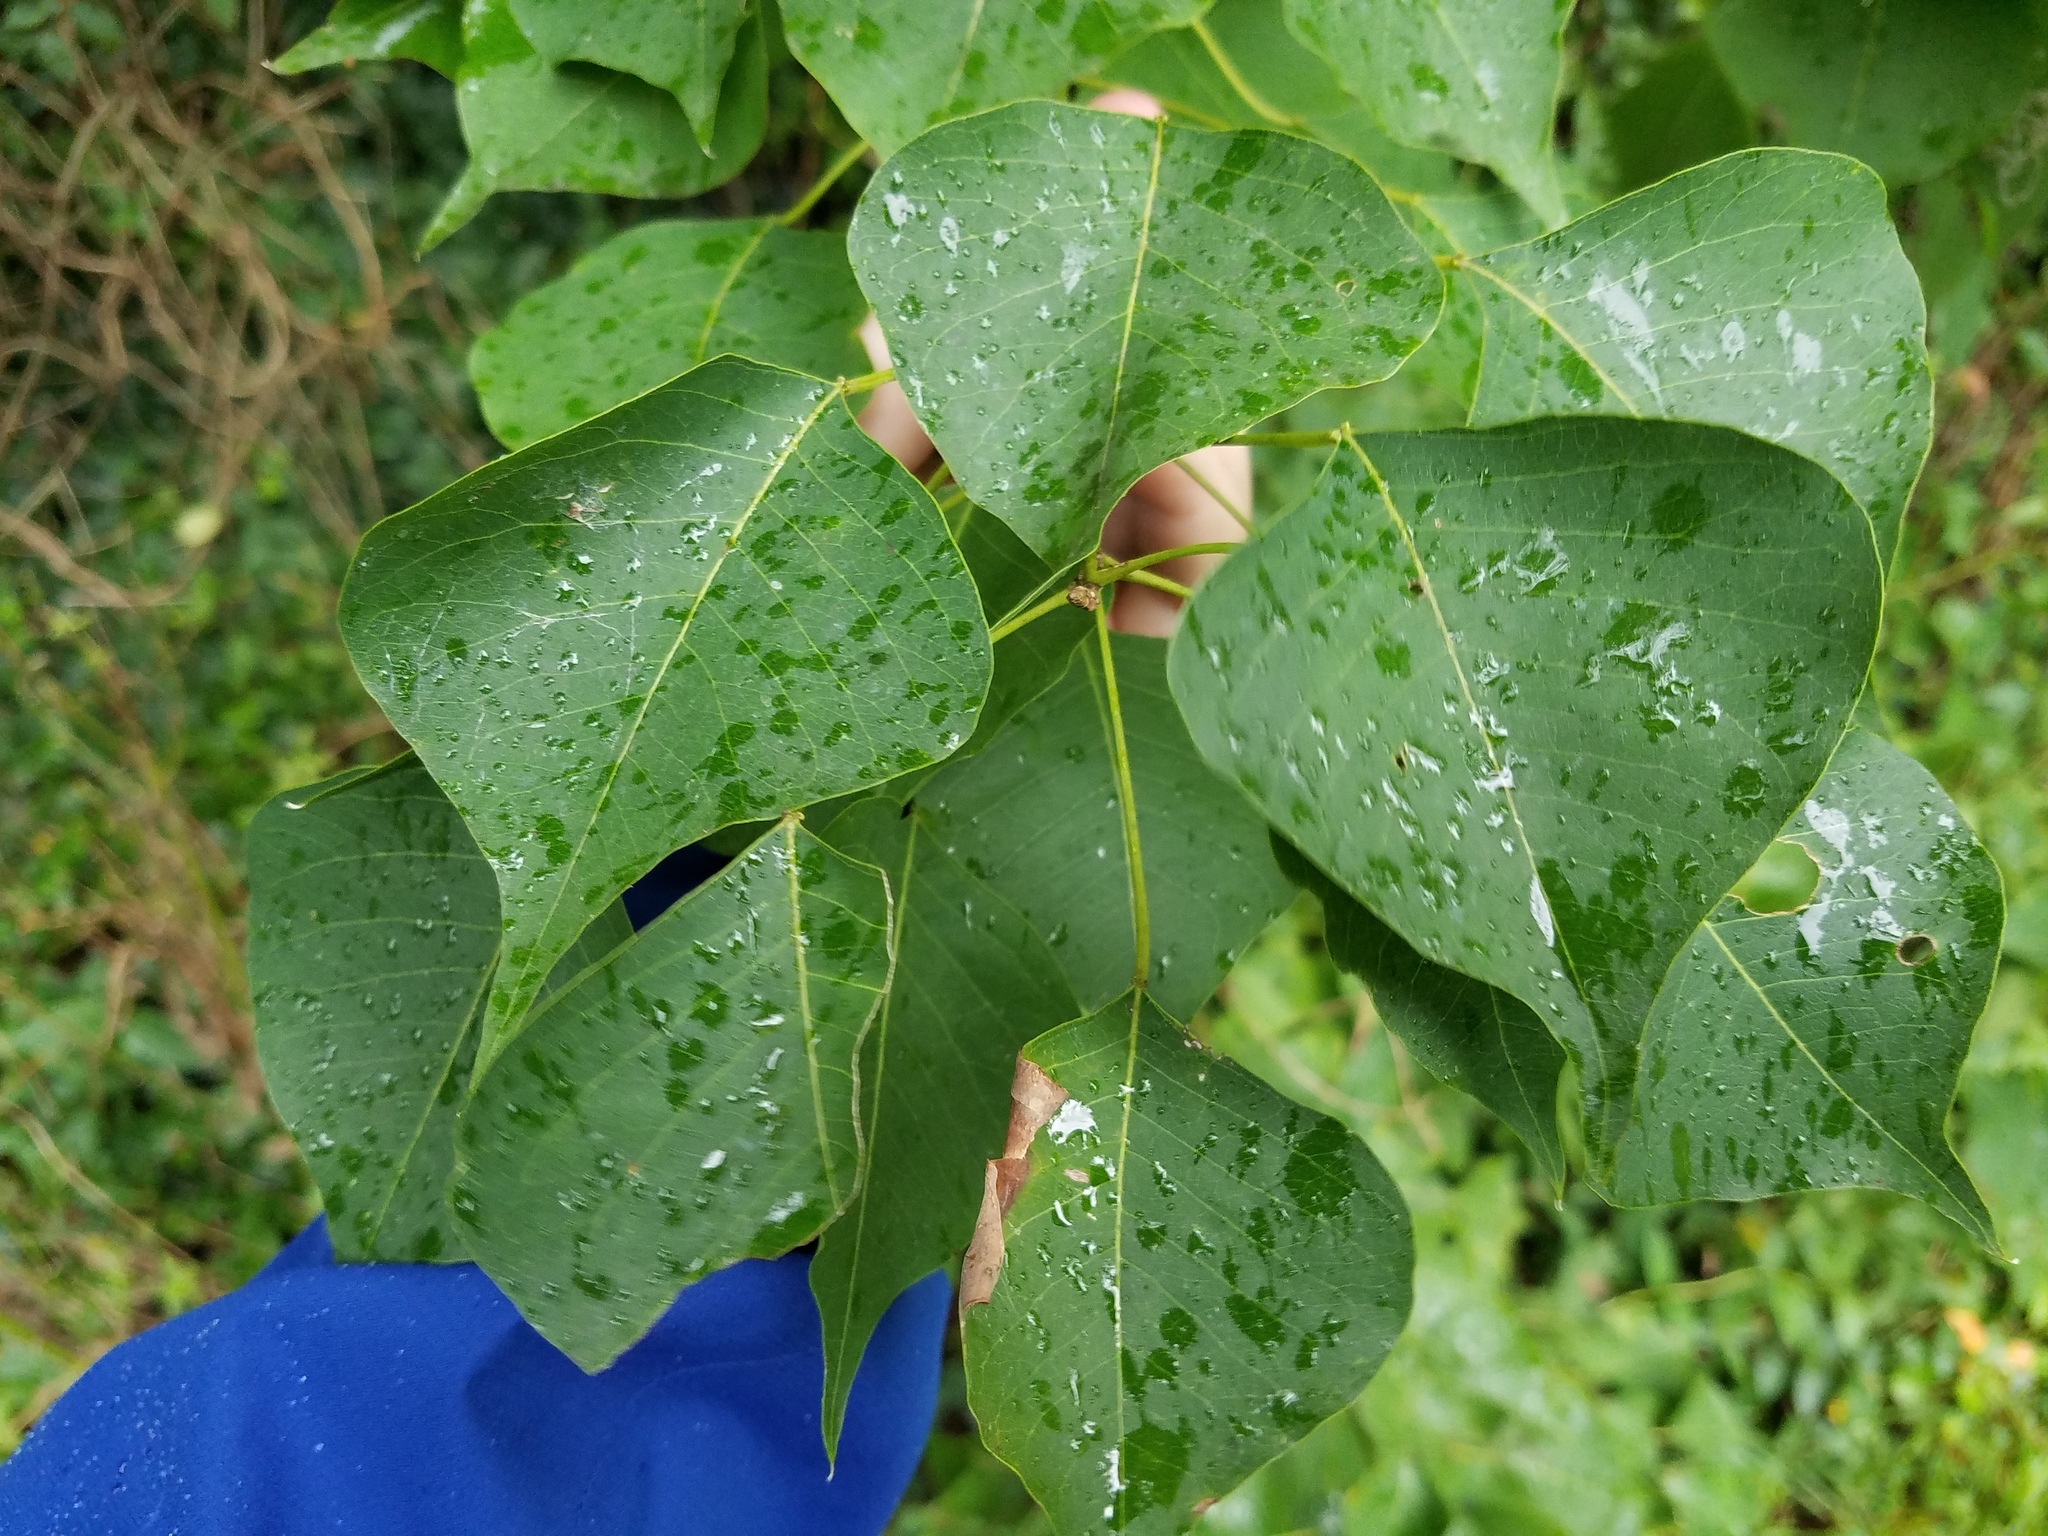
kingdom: Plantae
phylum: Tracheophyta
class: Magnoliopsida
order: Malpighiales
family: Euphorbiaceae
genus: Triadica
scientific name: Triadica sebifera
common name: Chinese tallow
